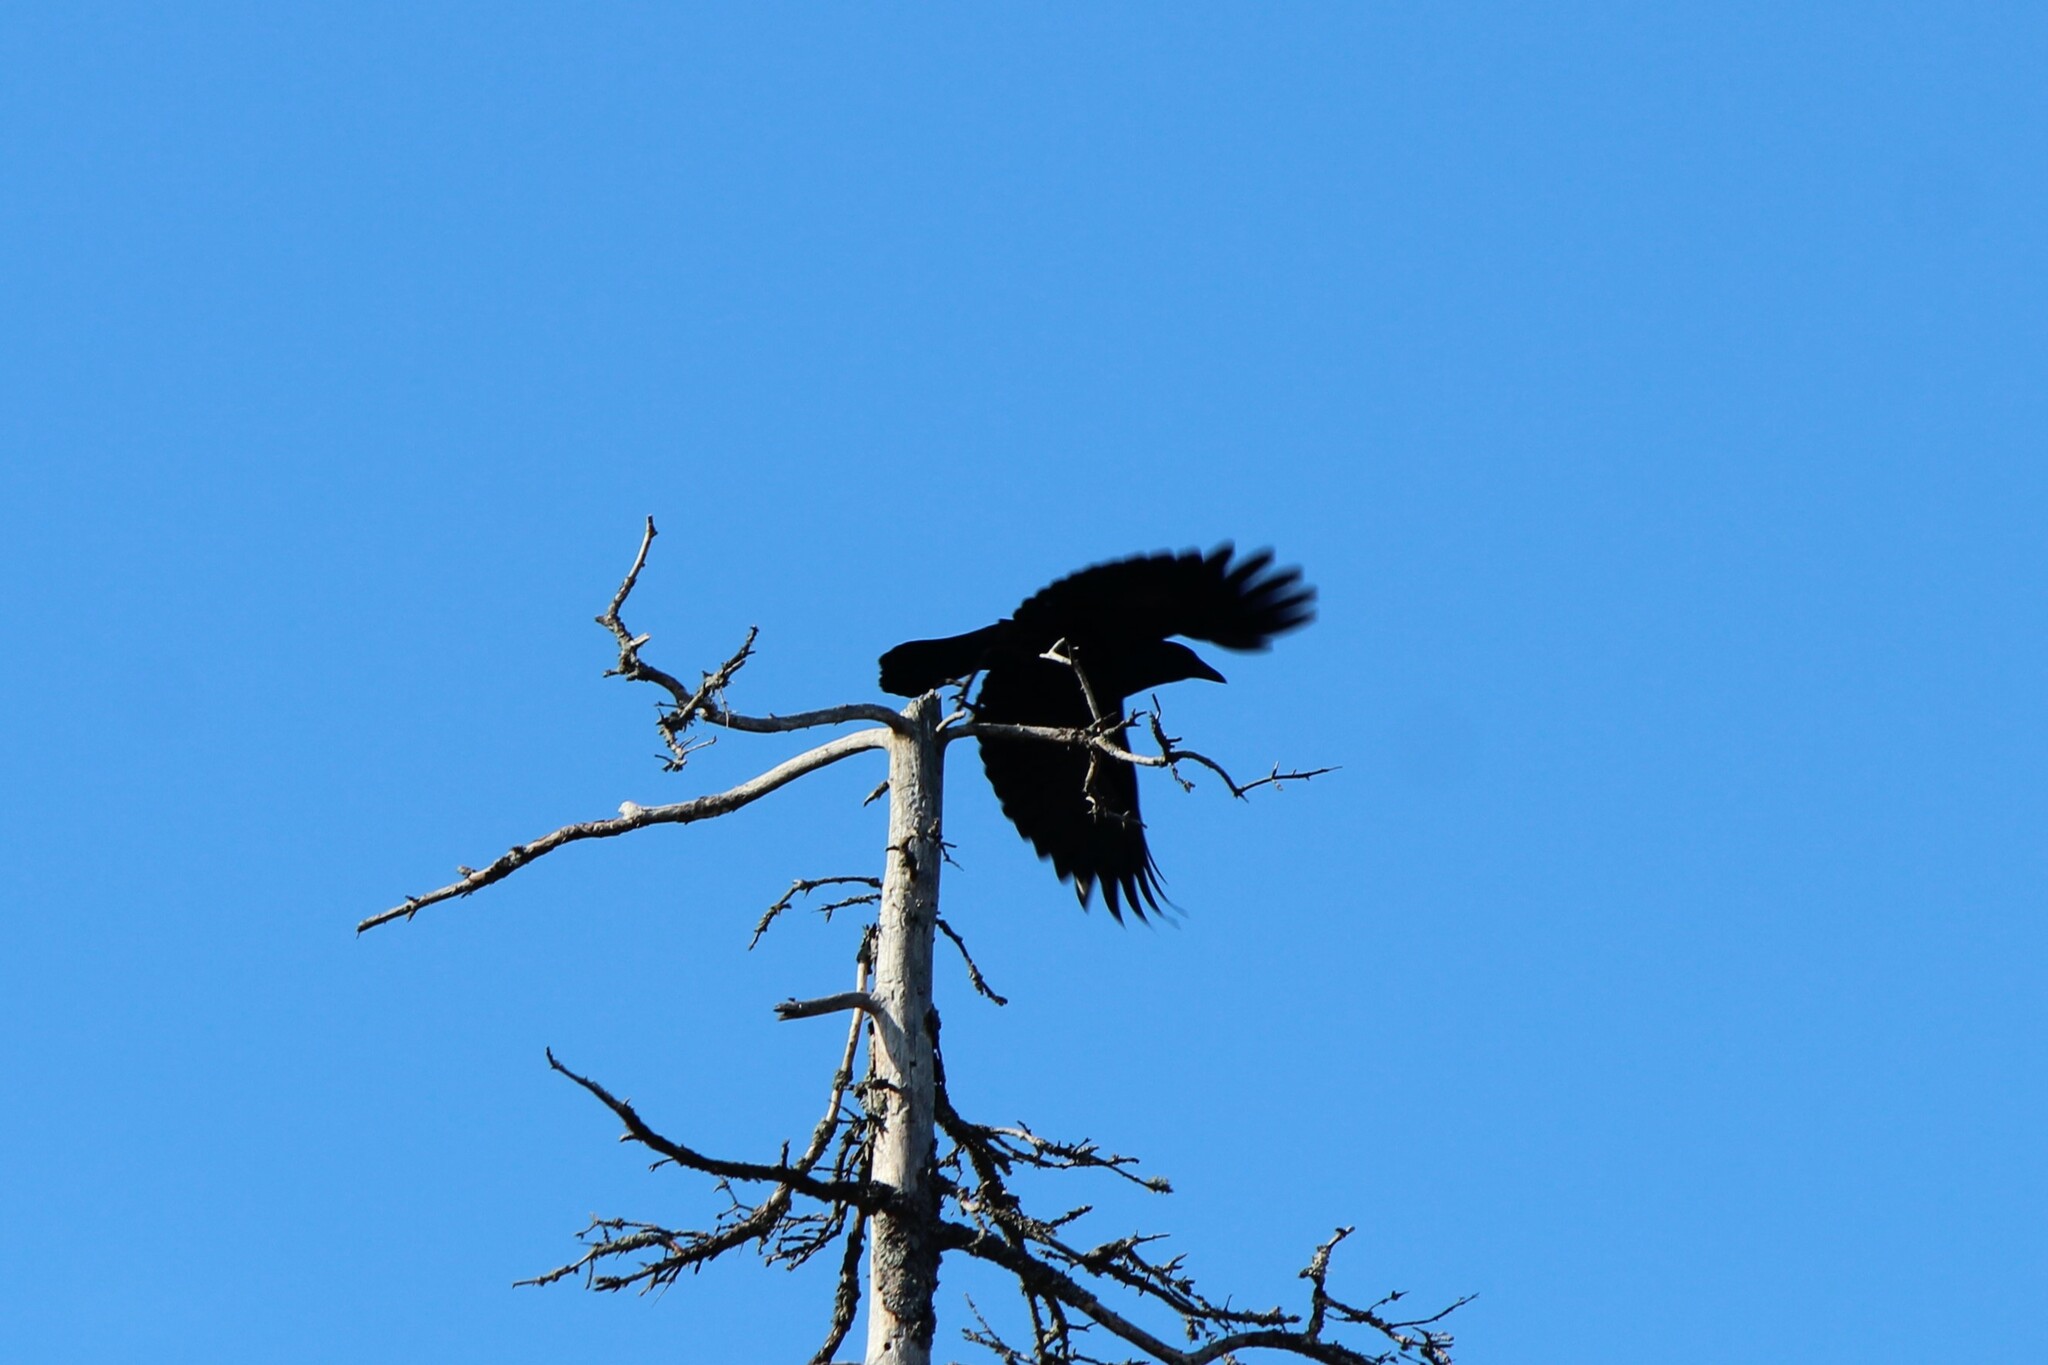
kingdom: Animalia
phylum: Chordata
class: Aves
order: Passeriformes
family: Corvidae
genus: Corvus
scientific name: Corvus brachyrhynchos
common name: American crow
